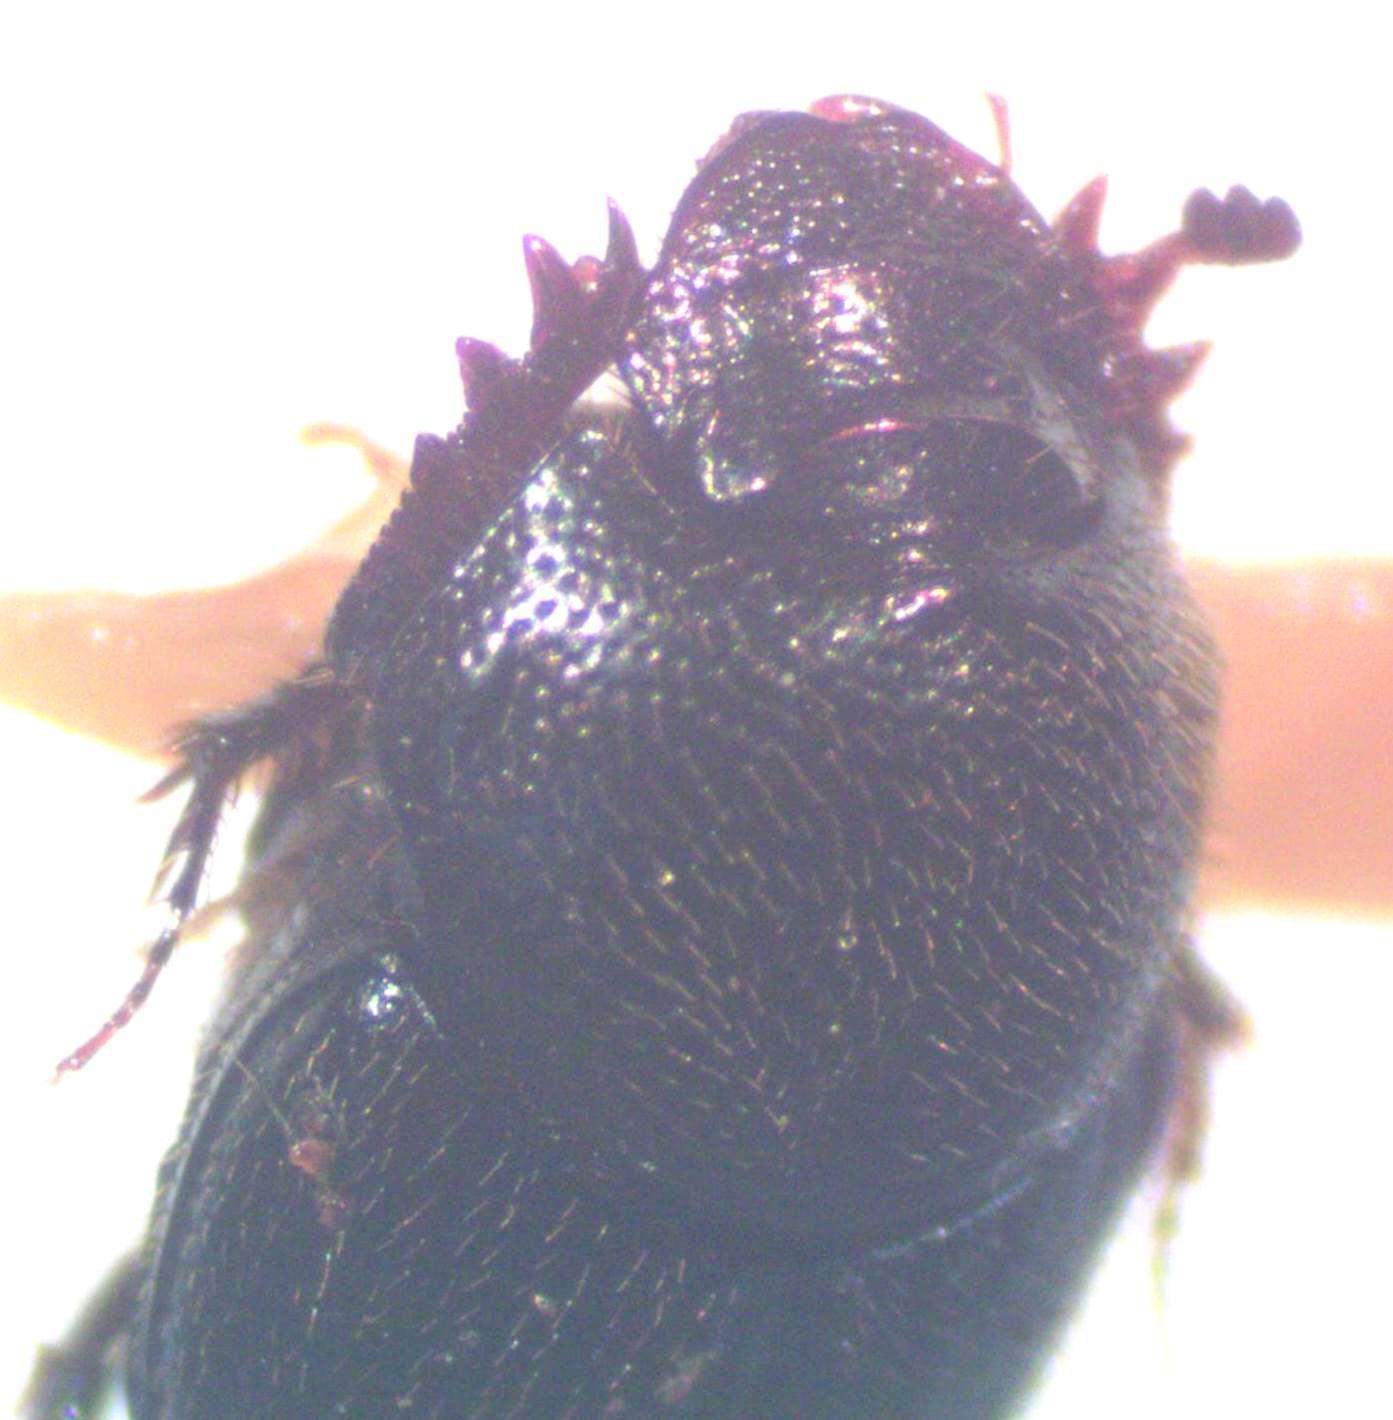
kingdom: Animalia
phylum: Arthropoda
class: Insecta
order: Coleoptera
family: Scarabaeidae
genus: Onthophagus
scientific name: Onthophagus landolti
